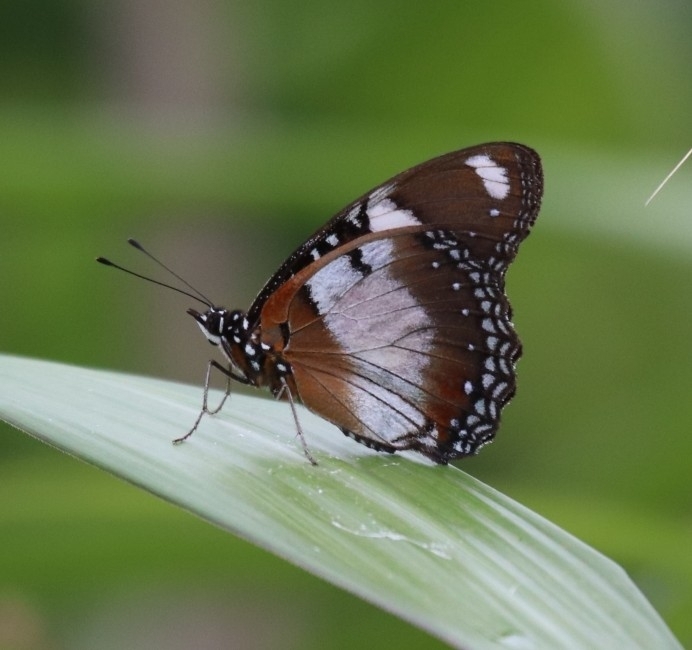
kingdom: Animalia
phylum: Arthropoda
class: Insecta
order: Lepidoptera
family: Nymphalidae
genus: Hypolimnas
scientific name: Hypolimnas misippus
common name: False plain tiger
